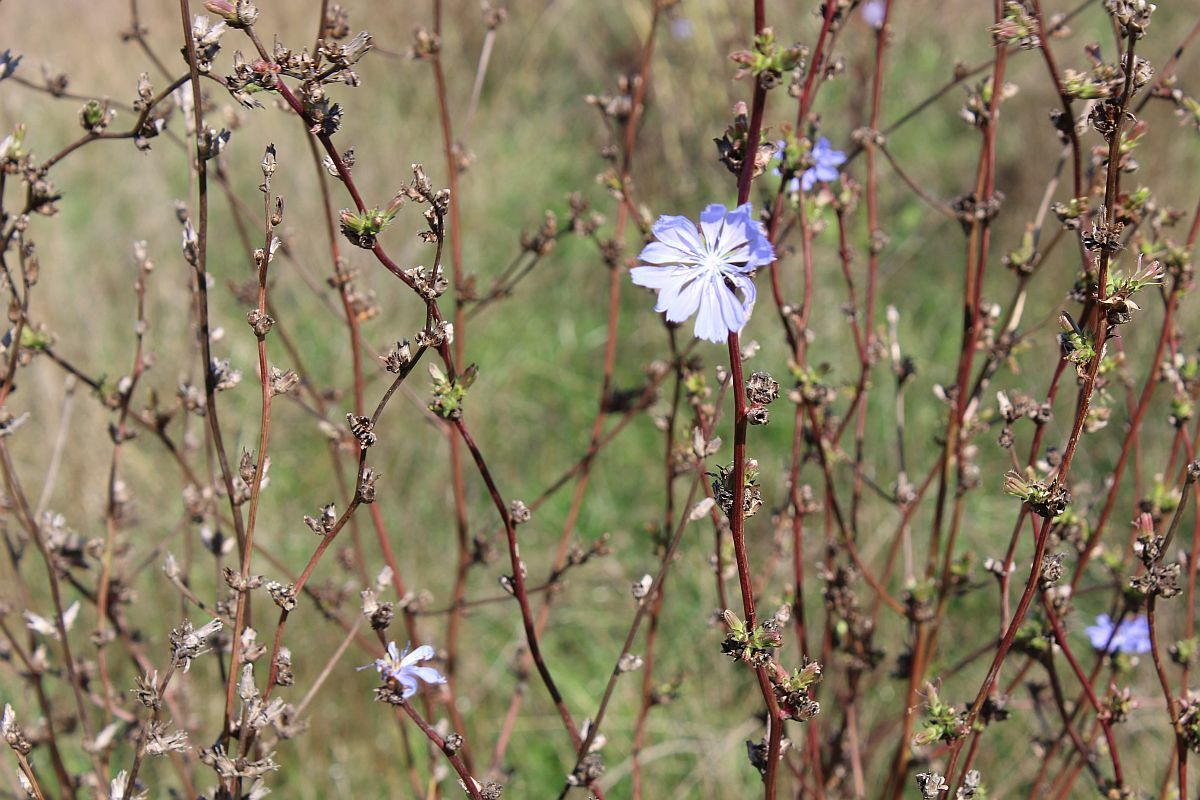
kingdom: Plantae
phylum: Tracheophyta
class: Magnoliopsida
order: Asterales
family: Asteraceae
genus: Cichorium
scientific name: Cichorium intybus
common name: Chicory
